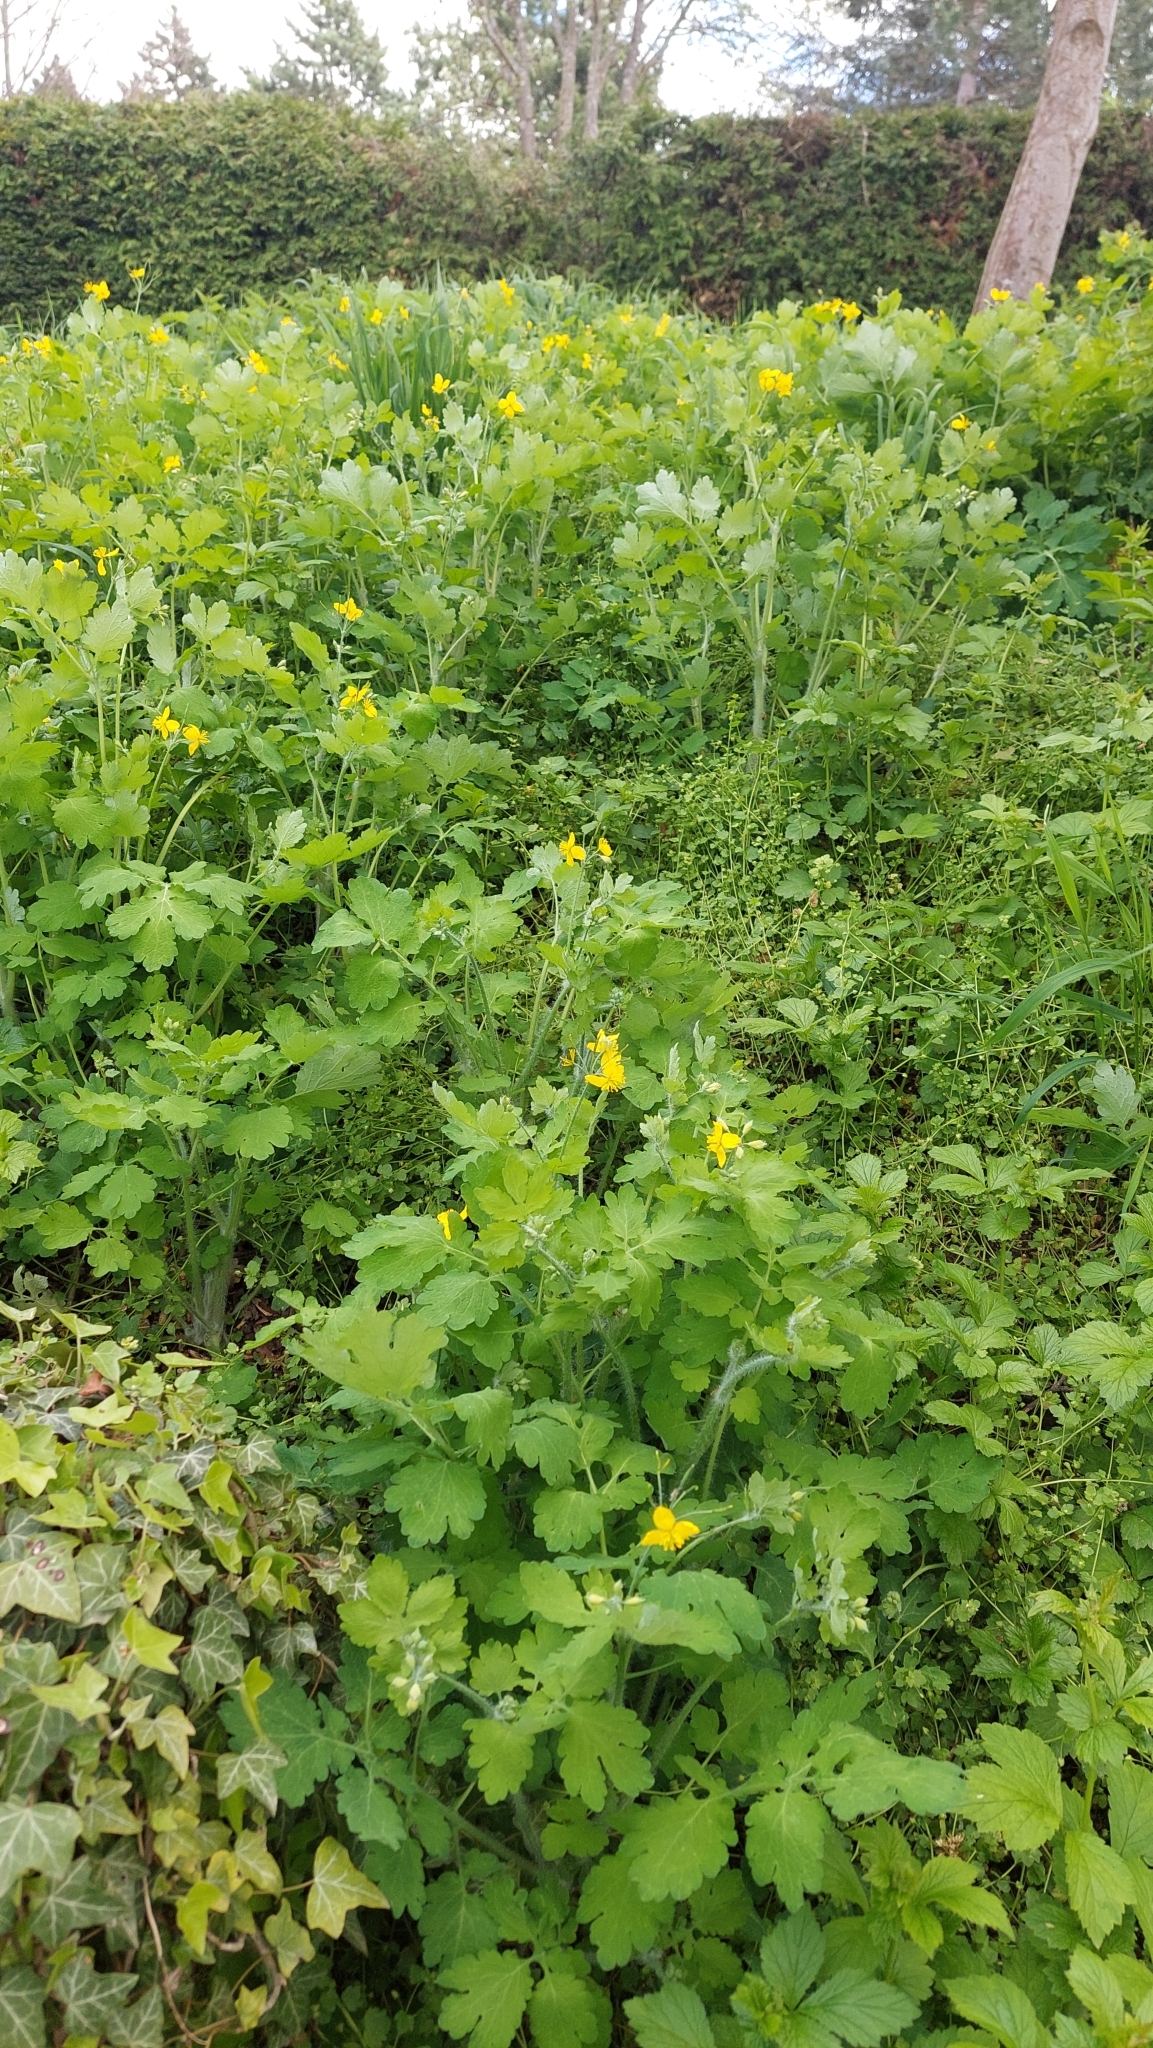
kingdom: Plantae
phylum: Tracheophyta
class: Magnoliopsida
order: Ranunculales
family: Papaveraceae
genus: Chelidonium
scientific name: Chelidonium majus
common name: Greater celandine
